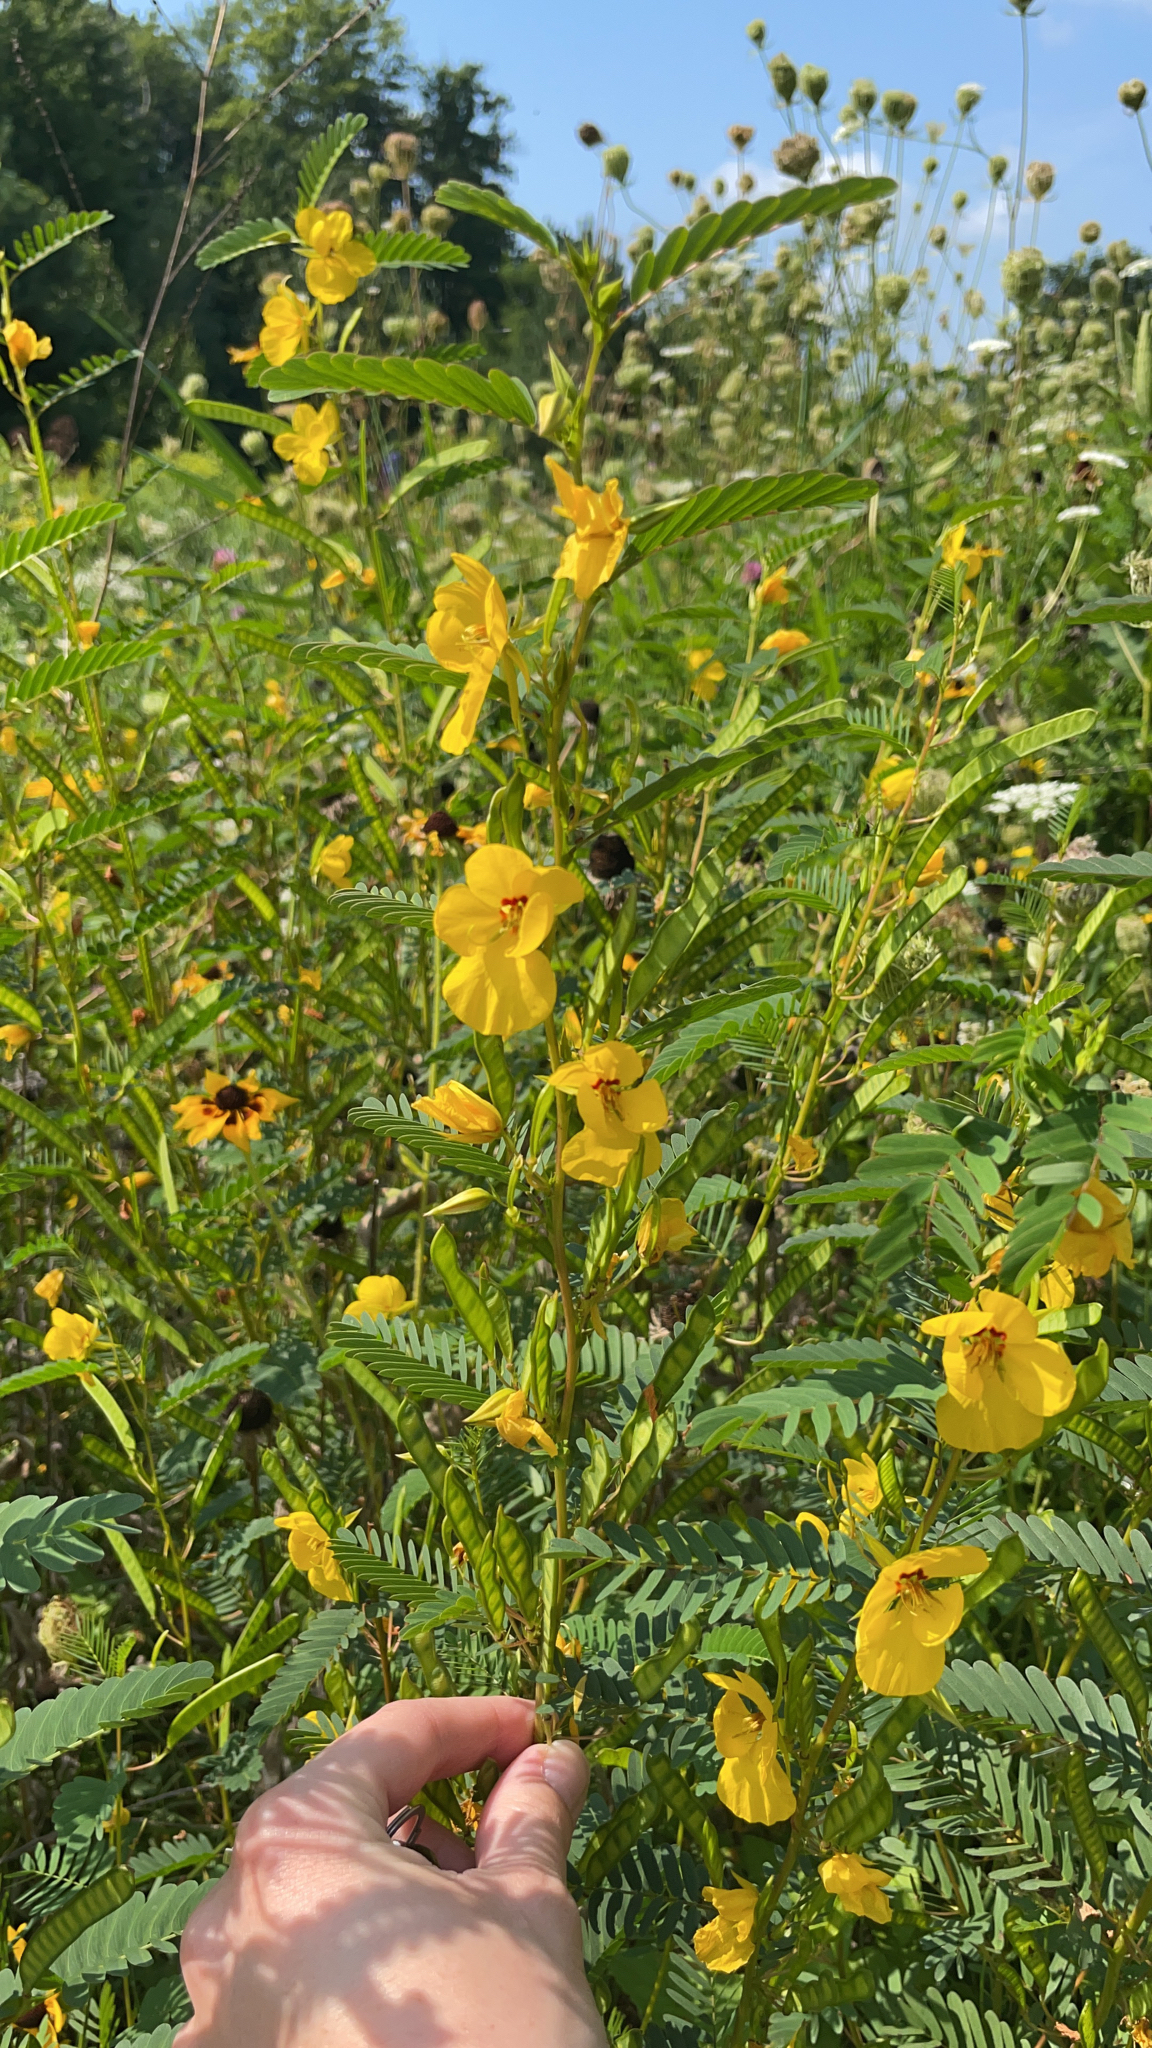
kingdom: Plantae
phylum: Tracheophyta
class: Magnoliopsida
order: Fabales
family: Fabaceae
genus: Chamaecrista
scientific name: Chamaecrista fasciculata
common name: Golden cassia
